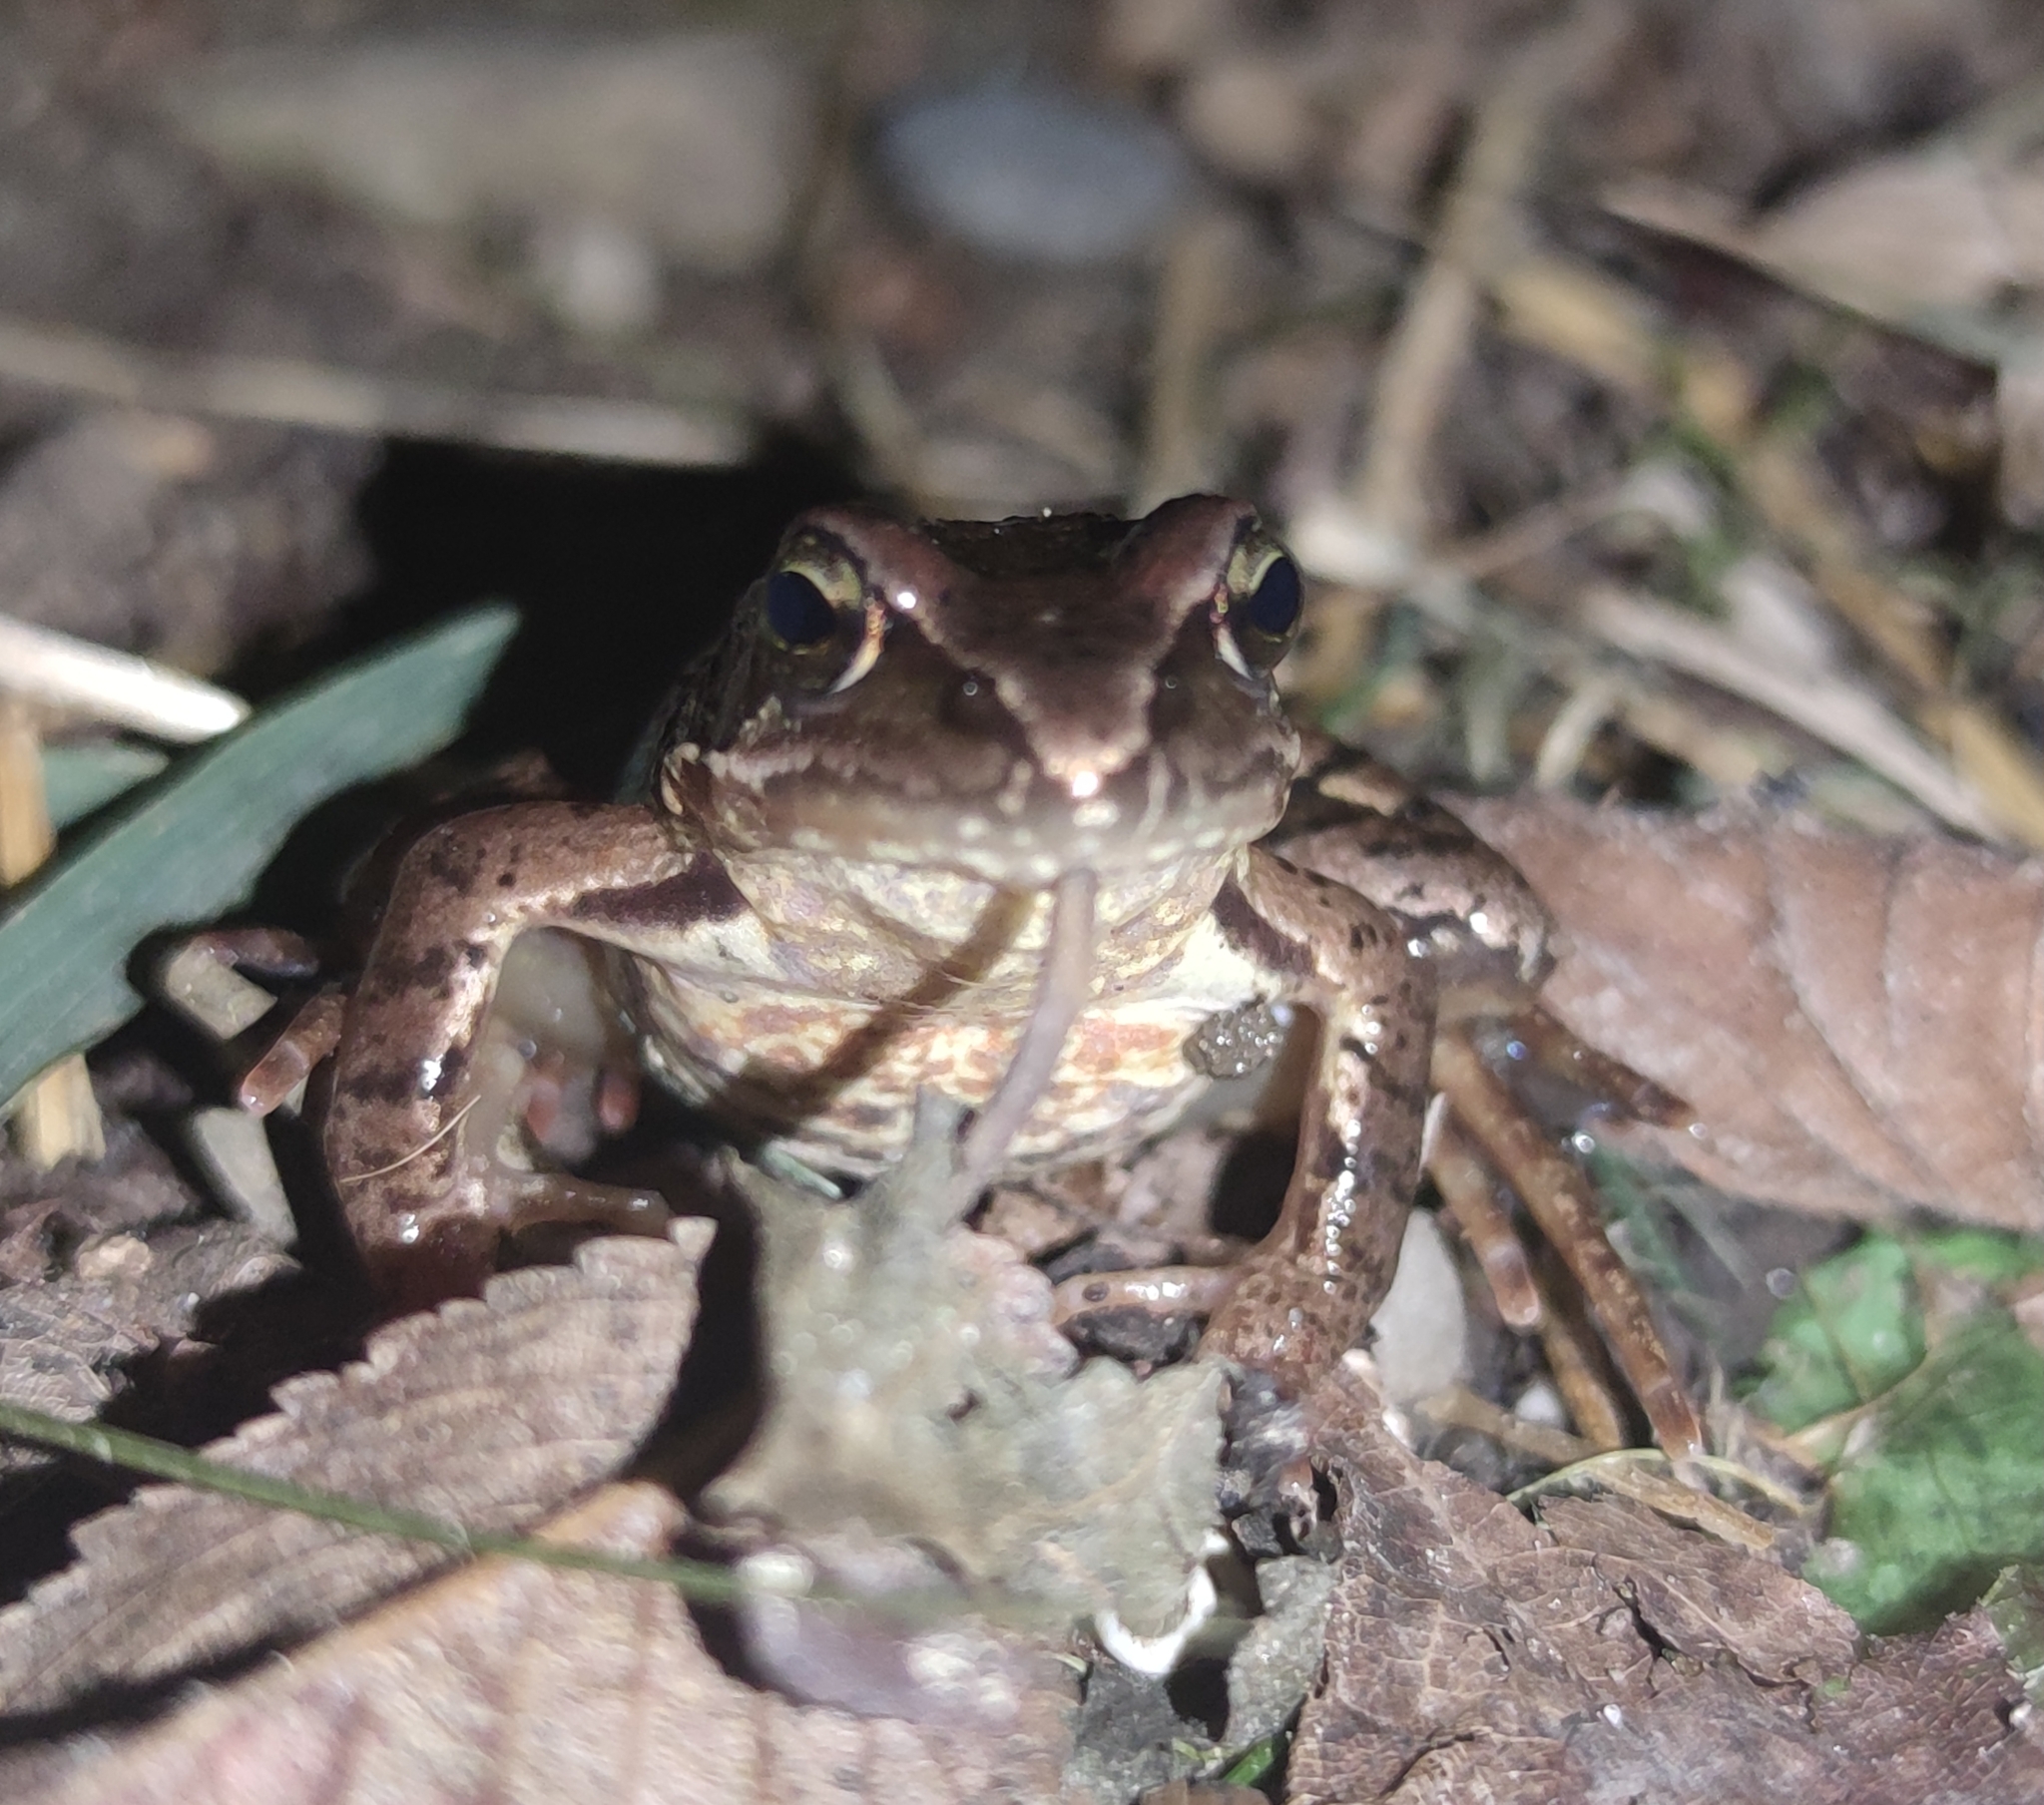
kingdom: Animalia
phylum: Chordata
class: Amphibia
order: Anura
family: Ranidae
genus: Rana
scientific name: Rana temporaria
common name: Common frog
